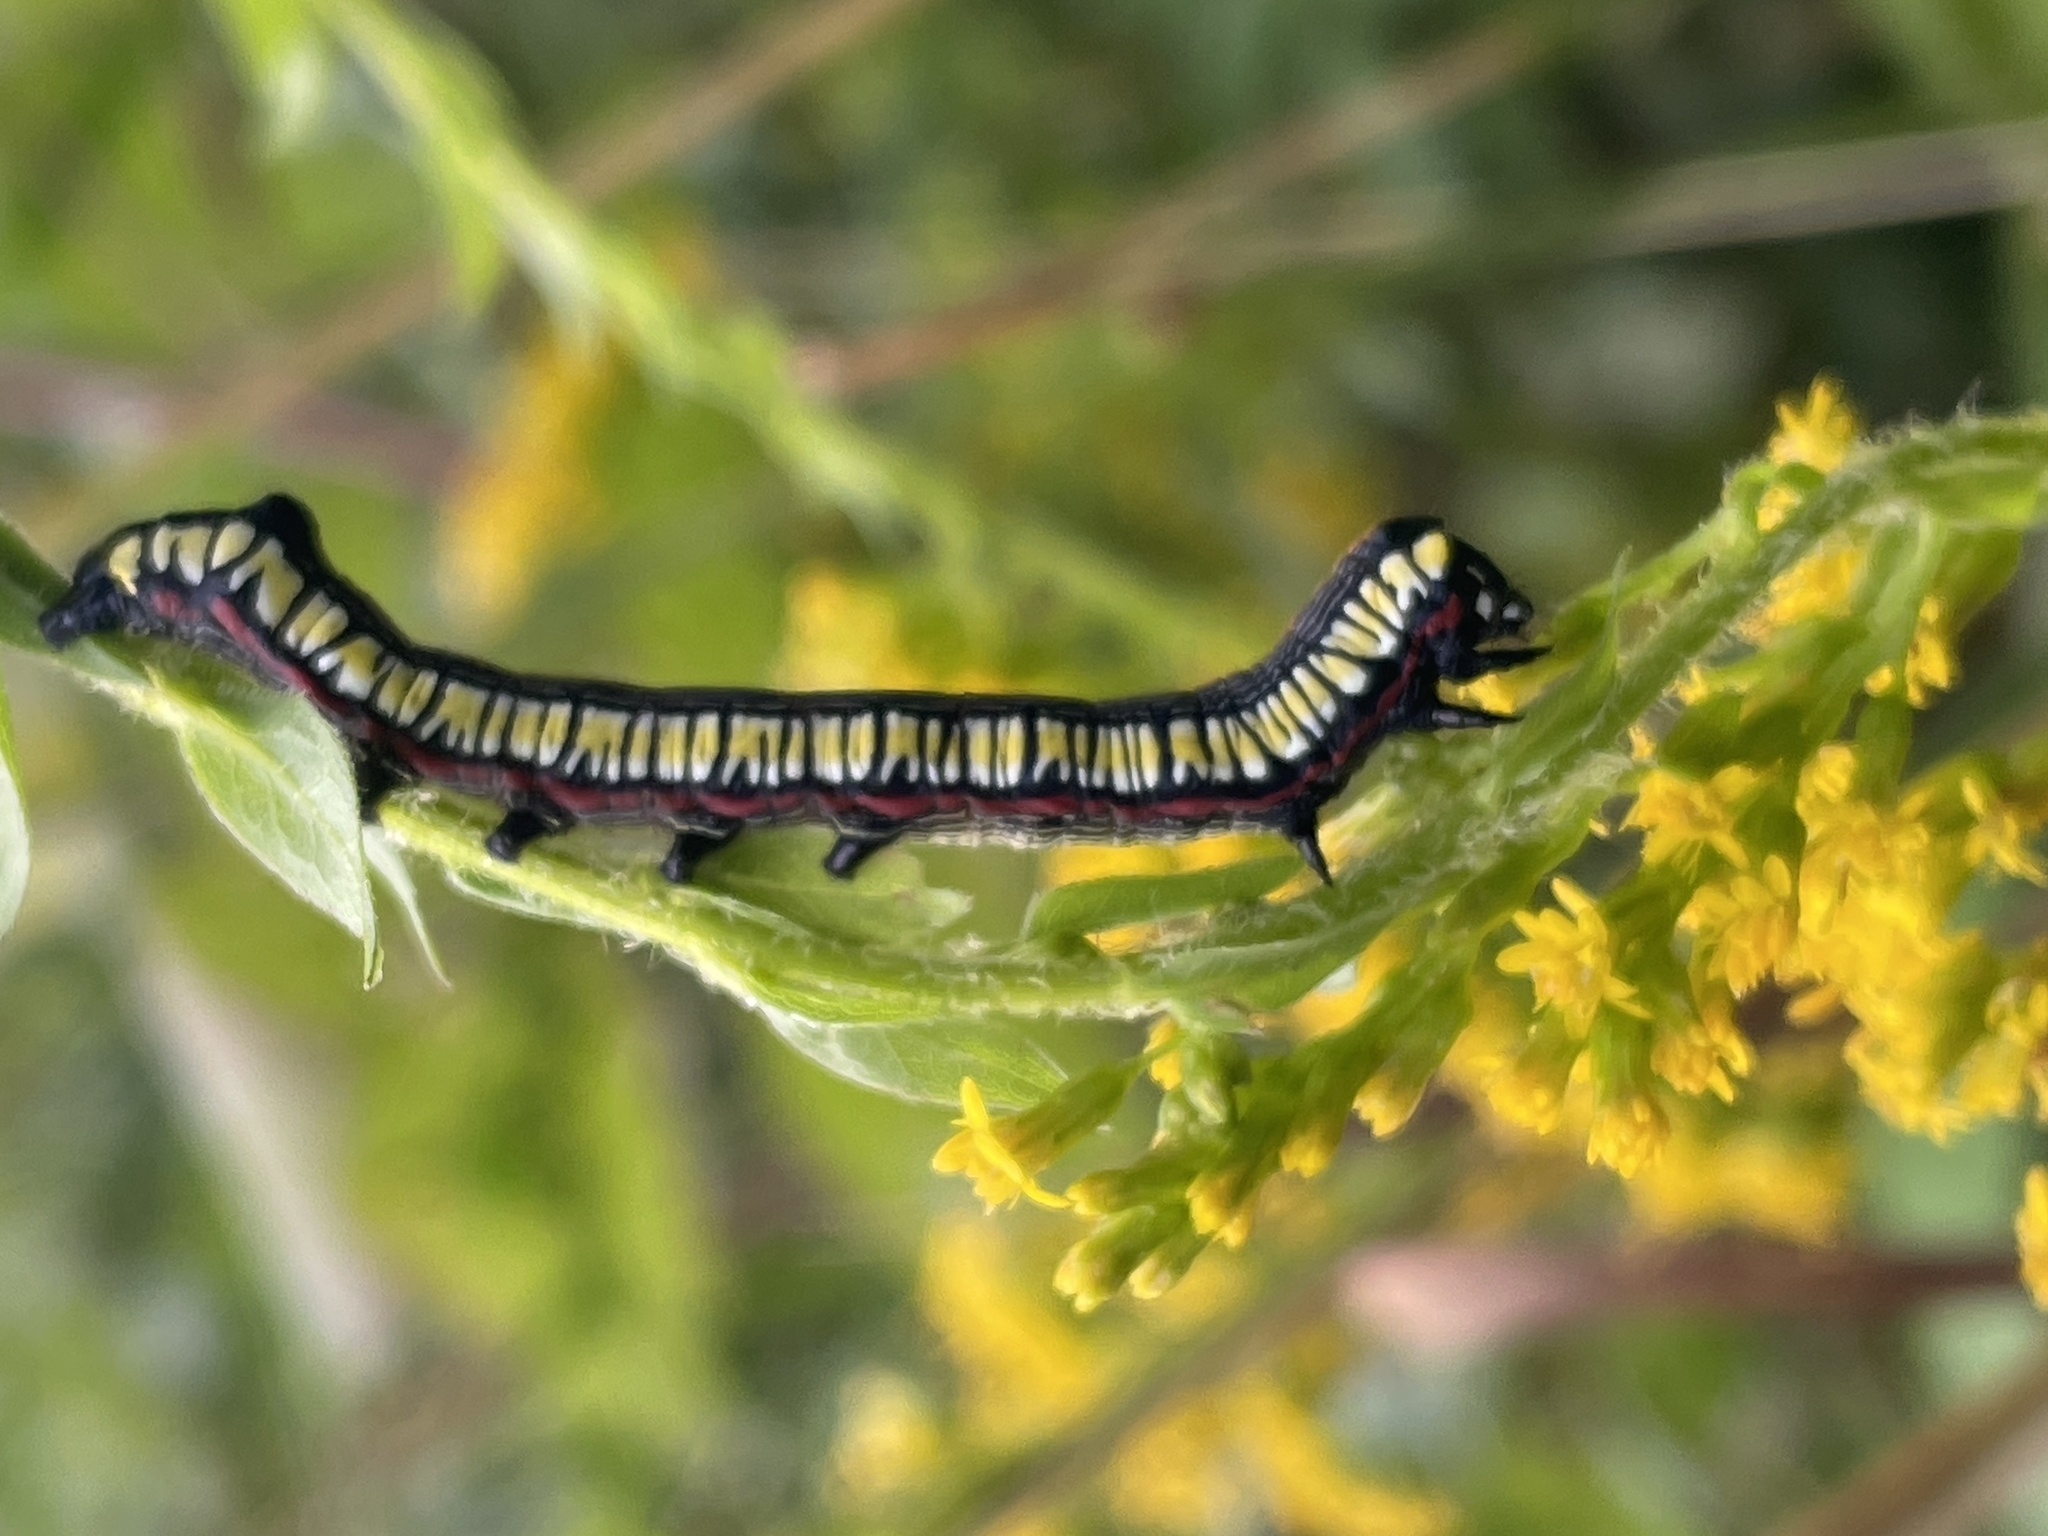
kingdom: Animalia
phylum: Arthropoda
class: Insecta
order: Lepidoptera
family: Noctuidae
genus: Cucullia
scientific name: Cucullia convexipennis
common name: Brown-hooded owlet
